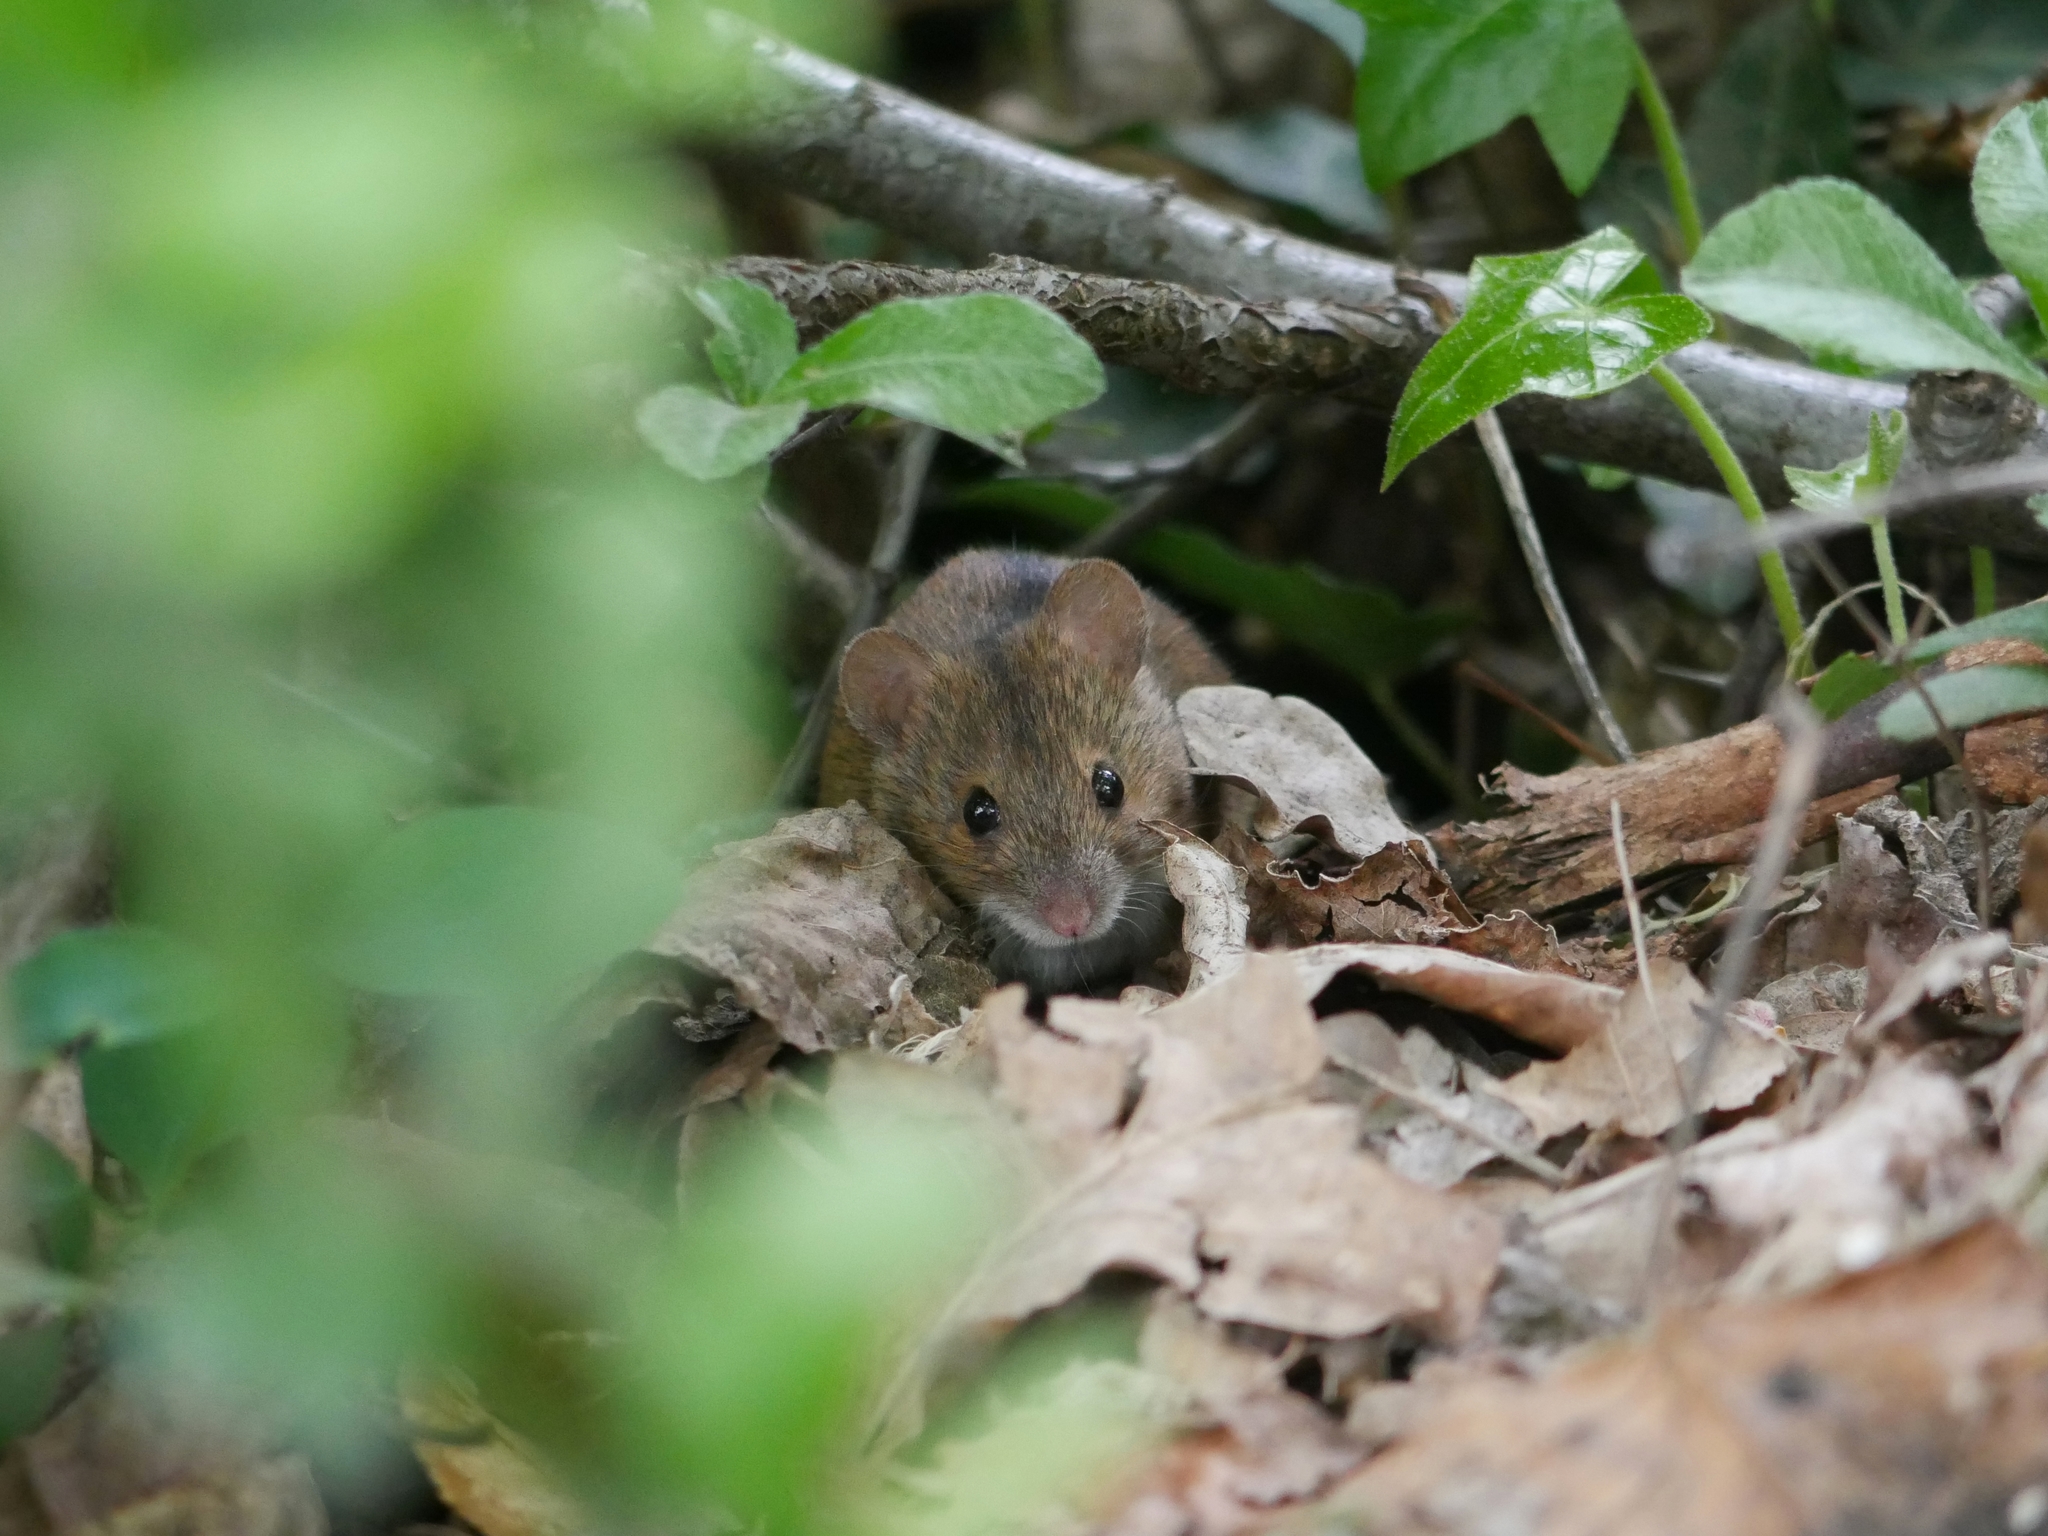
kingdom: Animalia
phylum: Chordata
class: Mammalia
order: Rodentia
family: Muridae
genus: Apodemus
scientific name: Apodemus agrarius
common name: Striped field mouse
